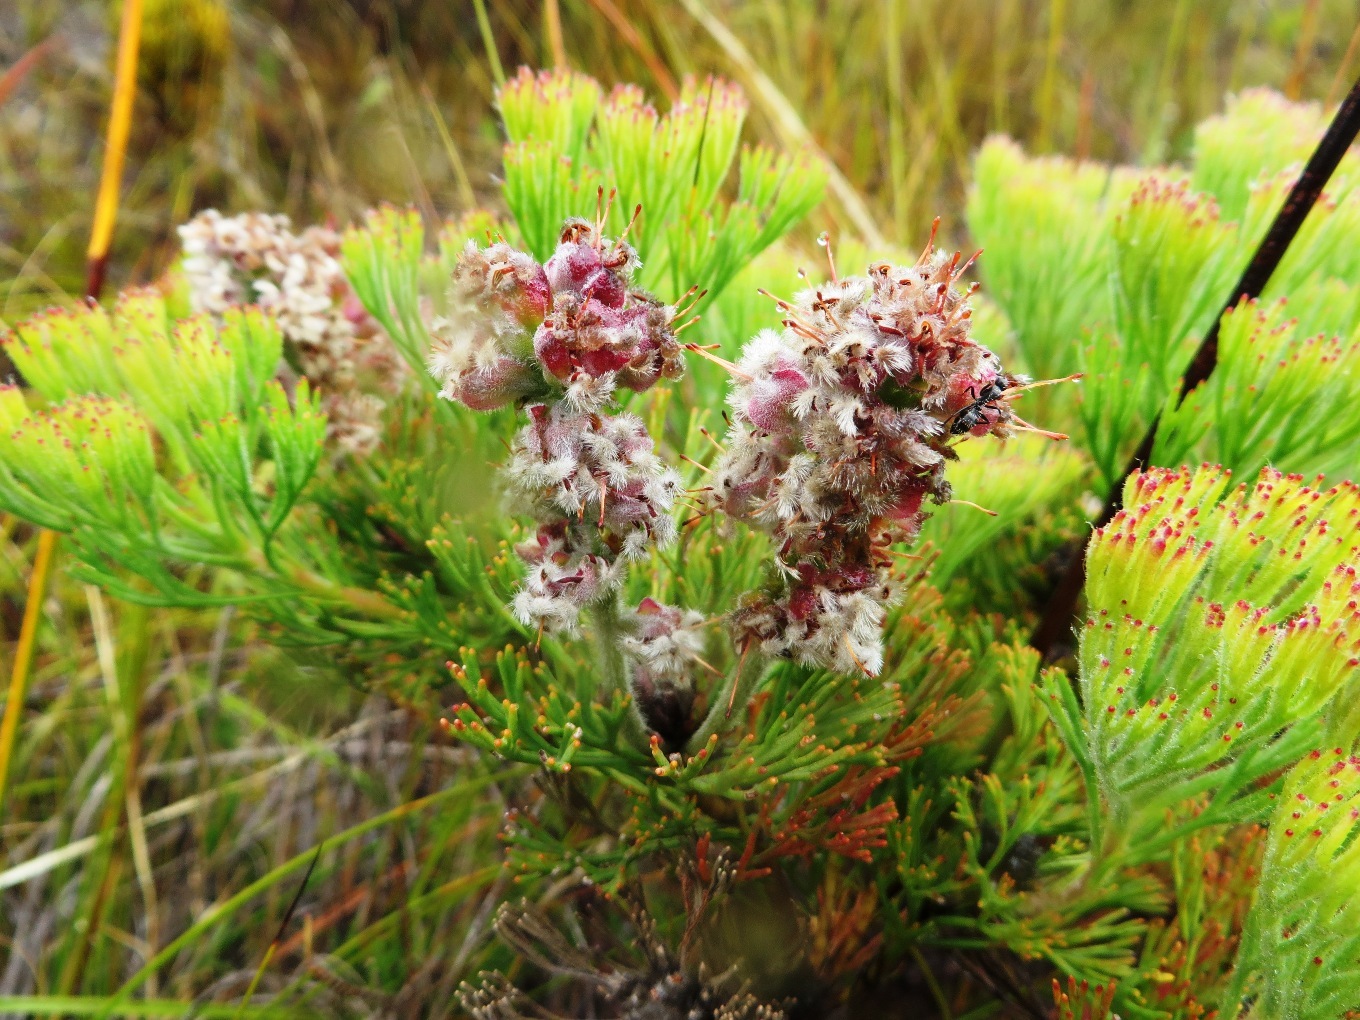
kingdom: Plantae
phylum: Tracheophyta
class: Magnoliopsida
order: Proteales
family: Proteaceae
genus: Paranomus
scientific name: Paranomus abrotanifolius
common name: Bredasdorp sceptre
